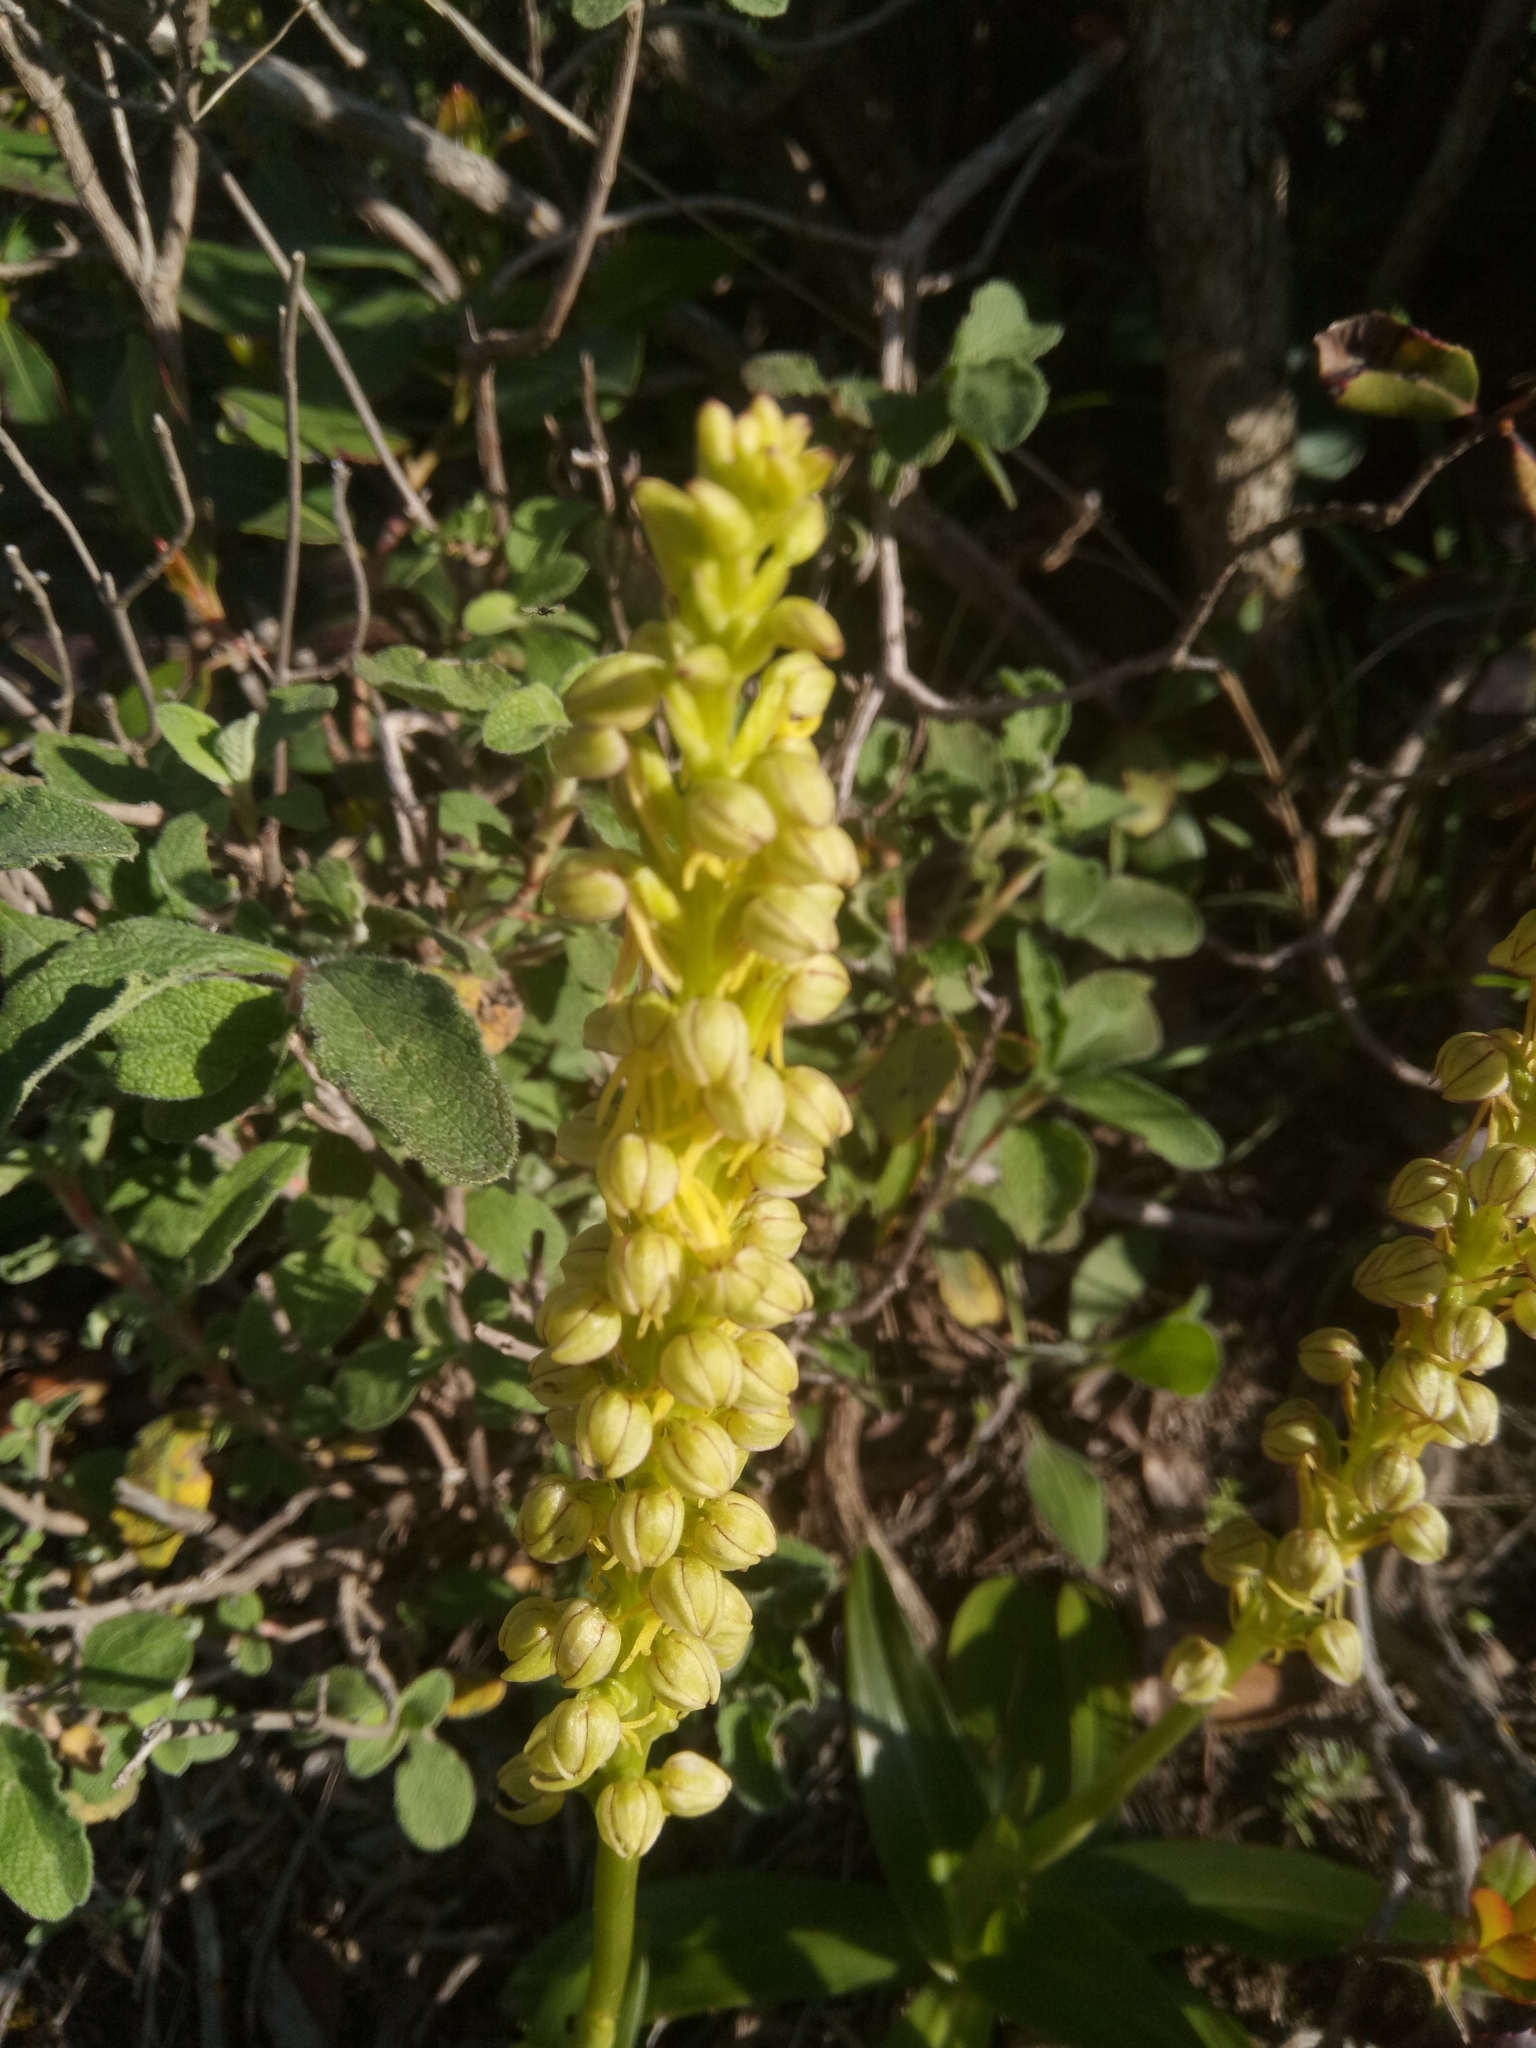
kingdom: Plantae
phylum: Tracheophyta
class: Liliopsida
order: Asparagales
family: Orchidaceae
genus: Orchis
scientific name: Orchis anthropophora
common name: Man orchid
